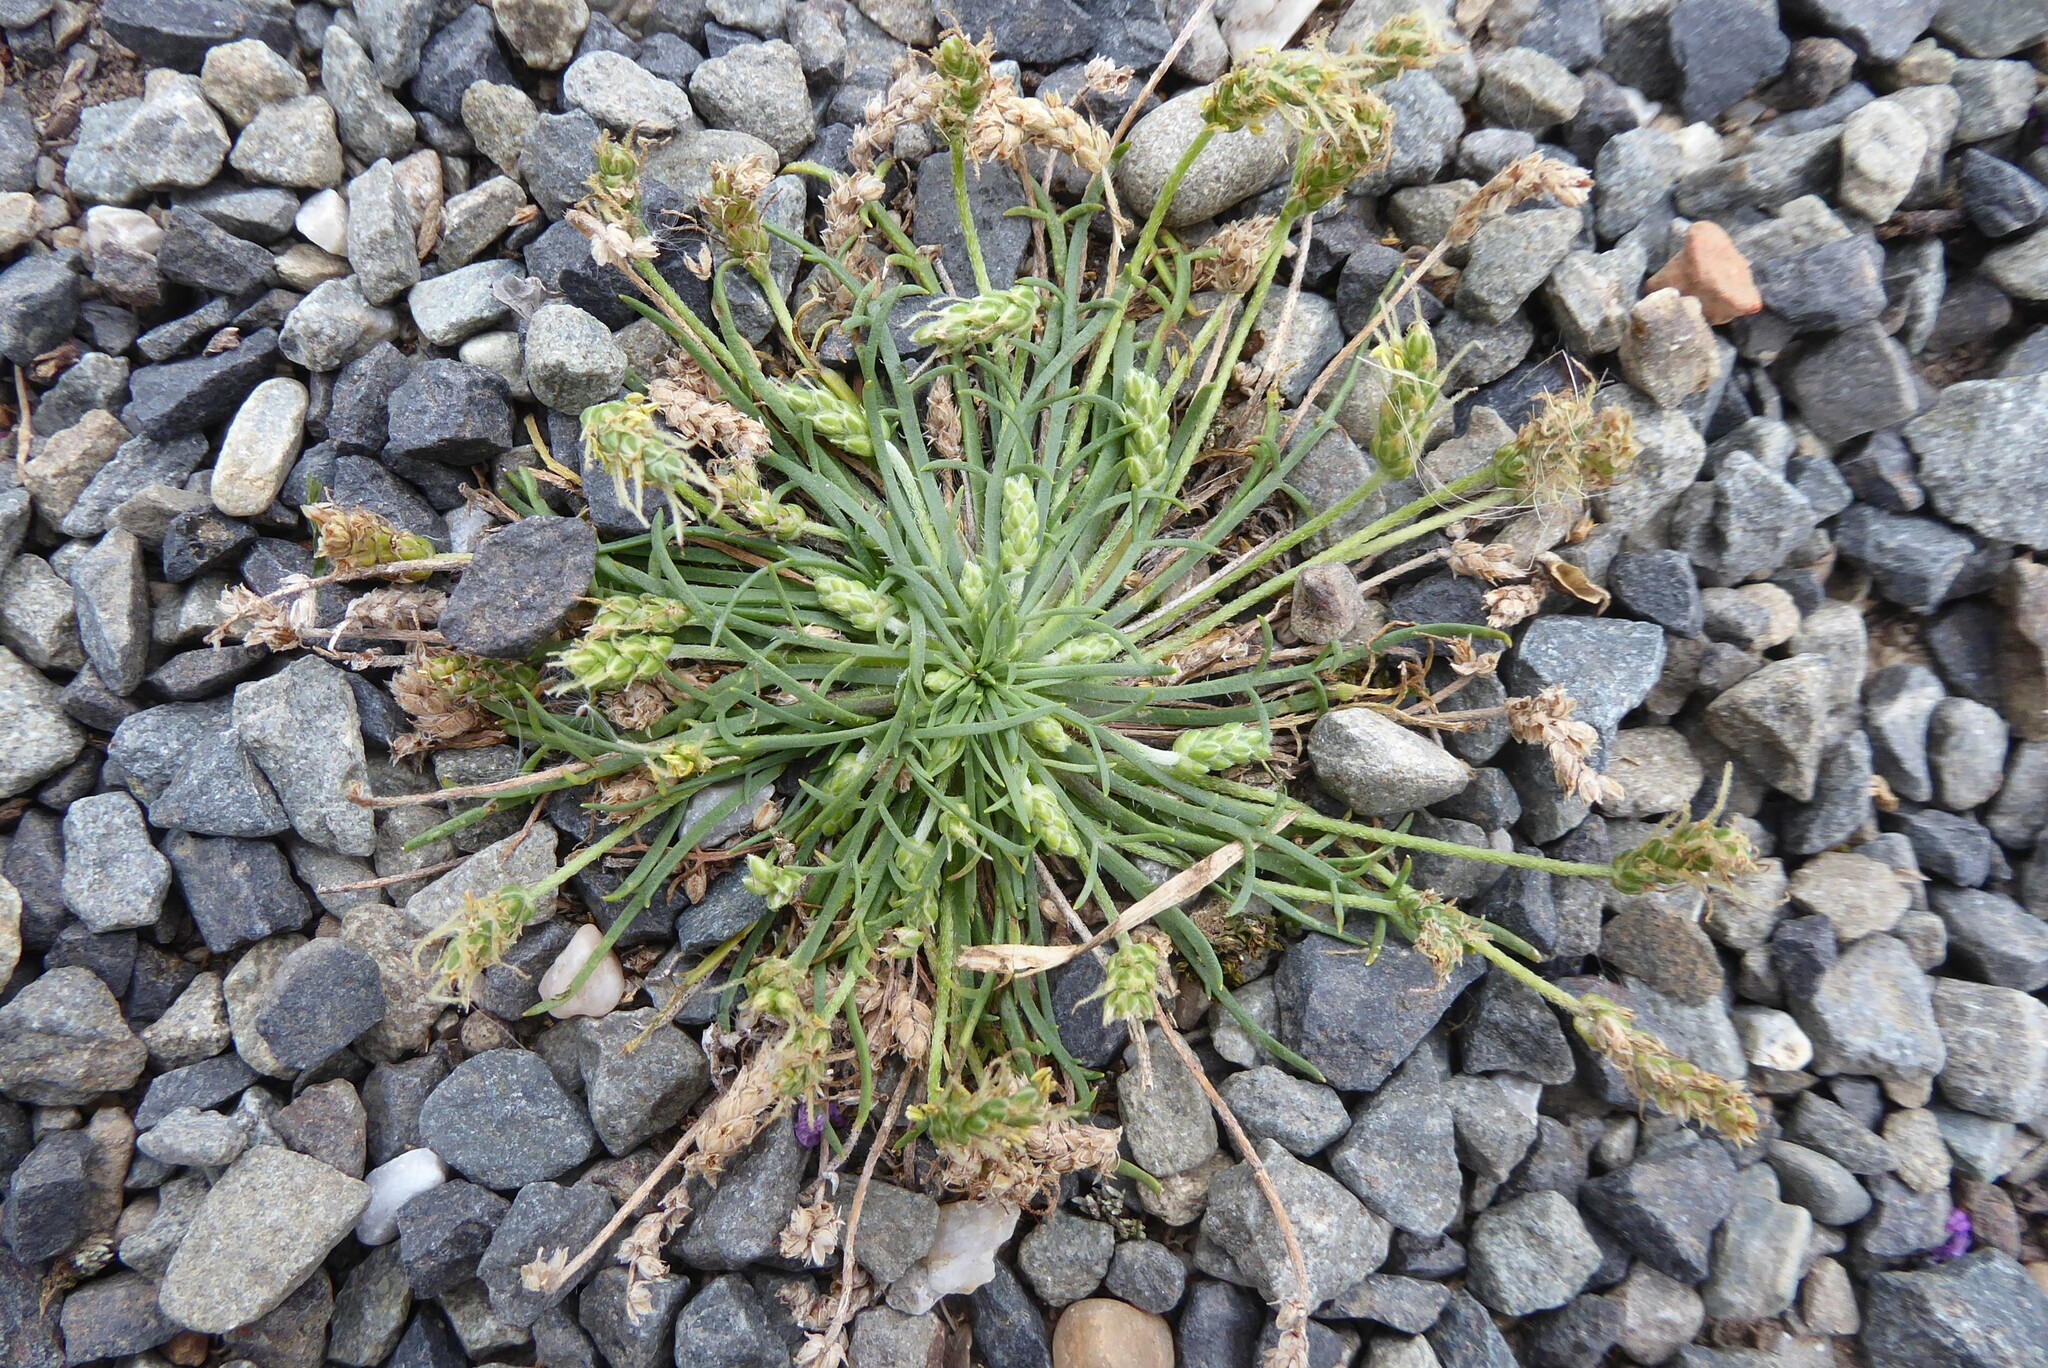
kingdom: Plantae
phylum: Tracheophyta
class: Magnoliopsida
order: Lamiales
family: Plantaginaceae
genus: Plantago
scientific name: Plantago coronopus
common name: Buck's-horn plantain
